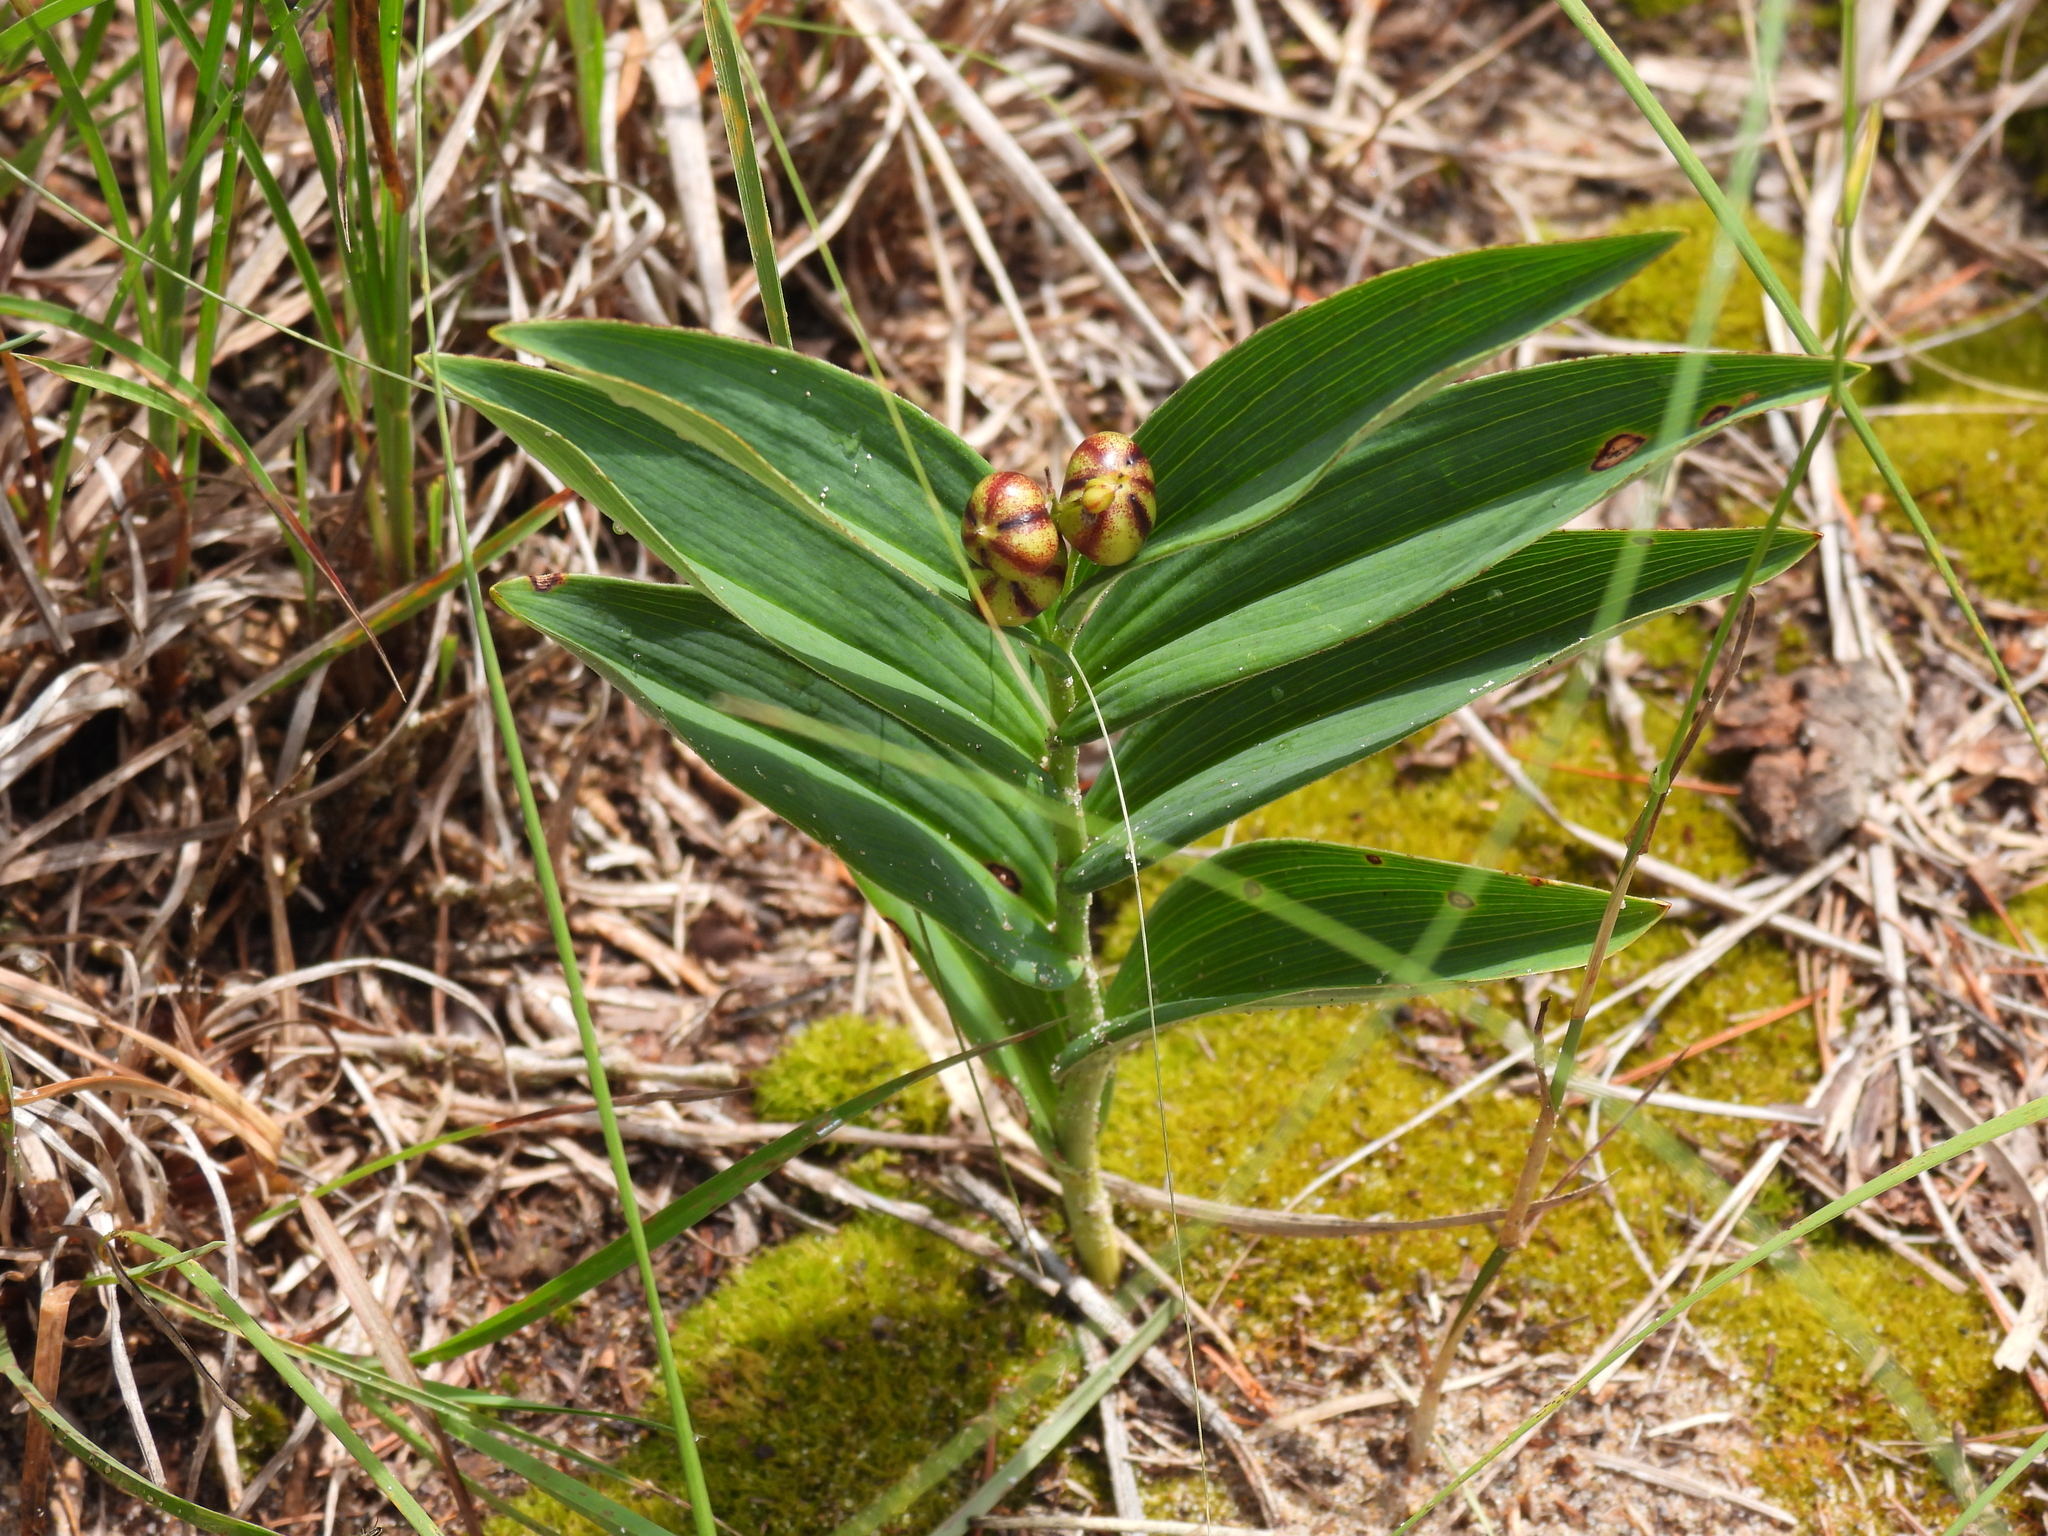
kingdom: Plantae
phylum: Tracheophyta
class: Liliopsida
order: Asparagales
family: Asparagaceae
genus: Maianthemum
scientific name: Maianthemum stellatum
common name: Little false solomon's seal
